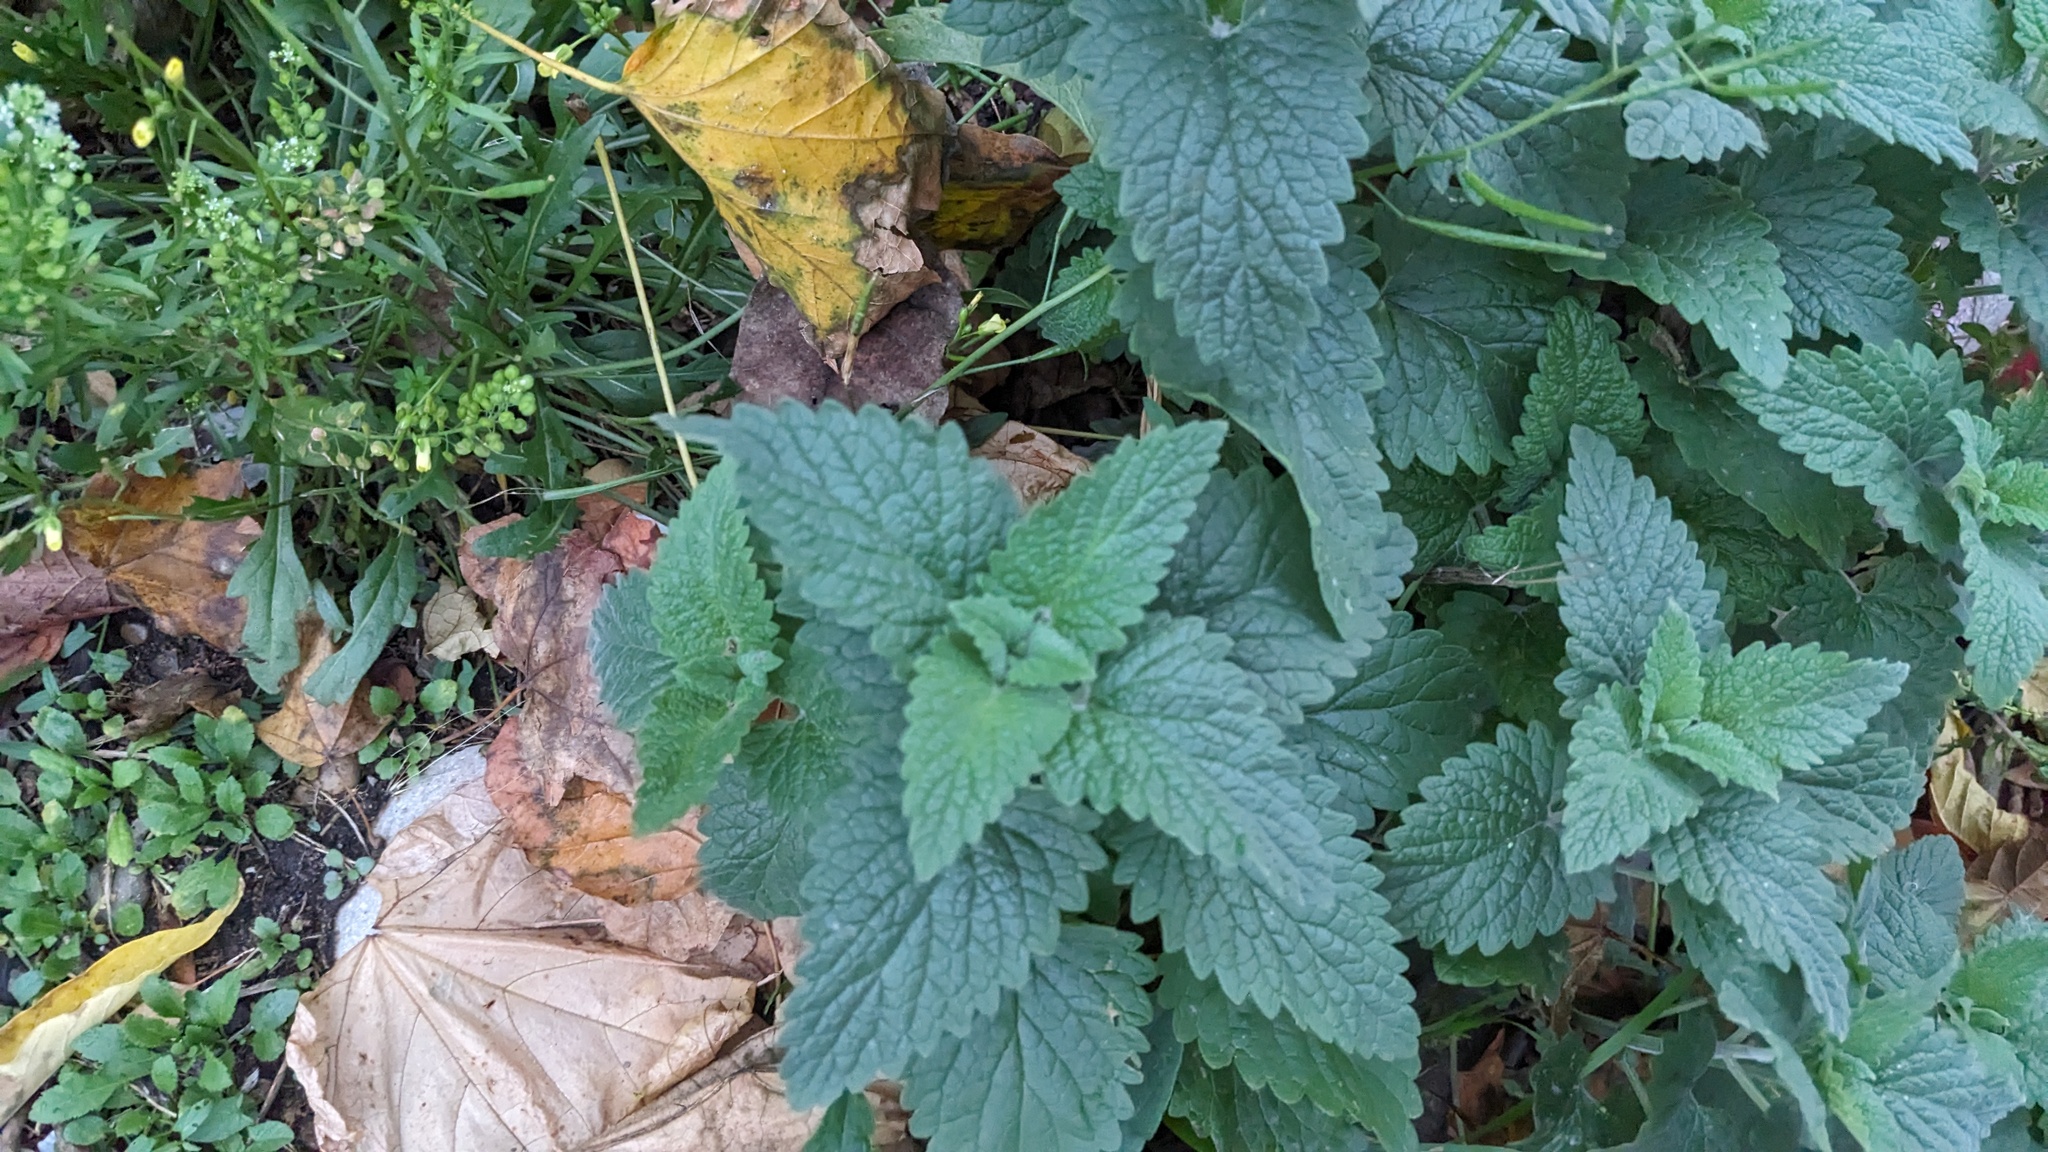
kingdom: Plantae
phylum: Tracheophyta
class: Magnoliopsida
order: Lamiales
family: Lamiaceae
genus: Nepeta
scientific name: Nepeta cataria
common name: Catnip
